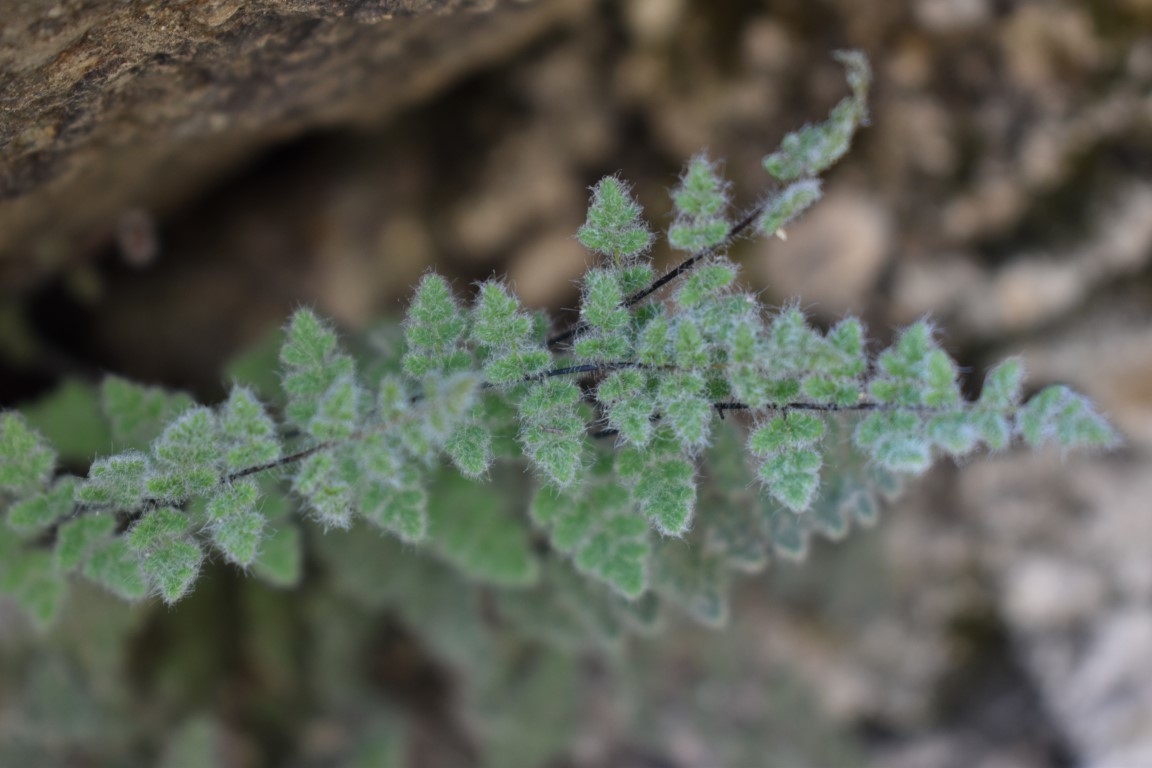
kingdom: Plantae
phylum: Tracheophyta
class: Polypodiopsida
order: Polypodiales
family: Pteridaceae
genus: Myriopteris
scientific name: Myriopteris parryi
